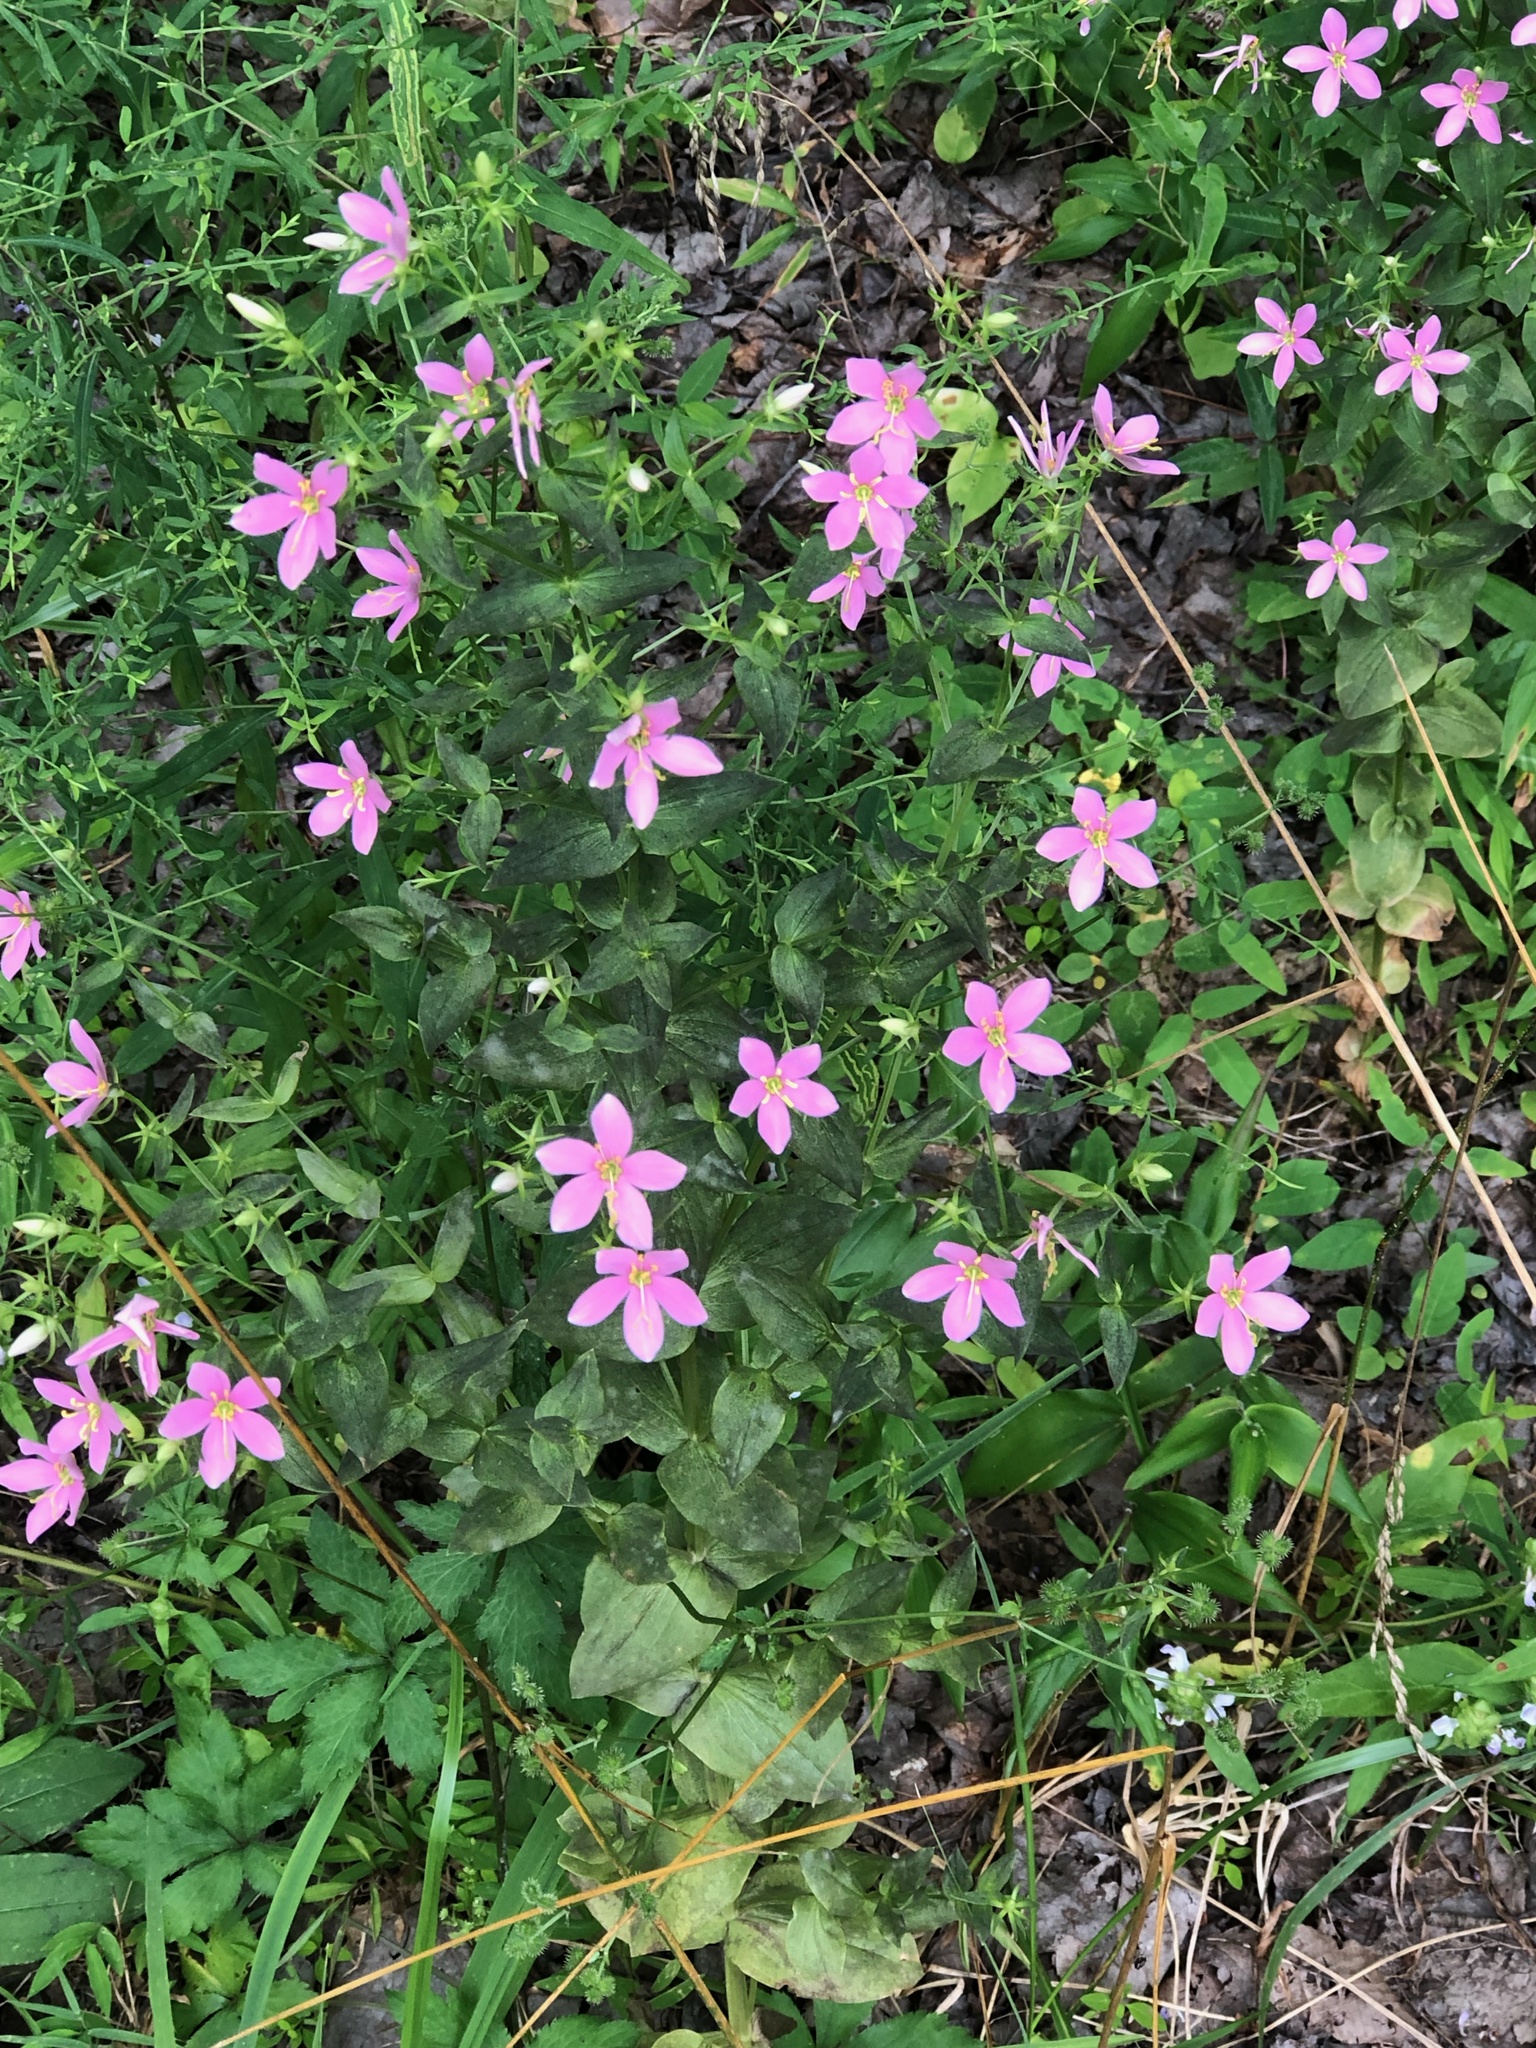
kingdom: Plantae
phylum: Tracheophyta
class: Magnoliopsida
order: Gentianales
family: Gentianaceae
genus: Sabatia
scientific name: Sabatia angularis
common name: Rose-pink
